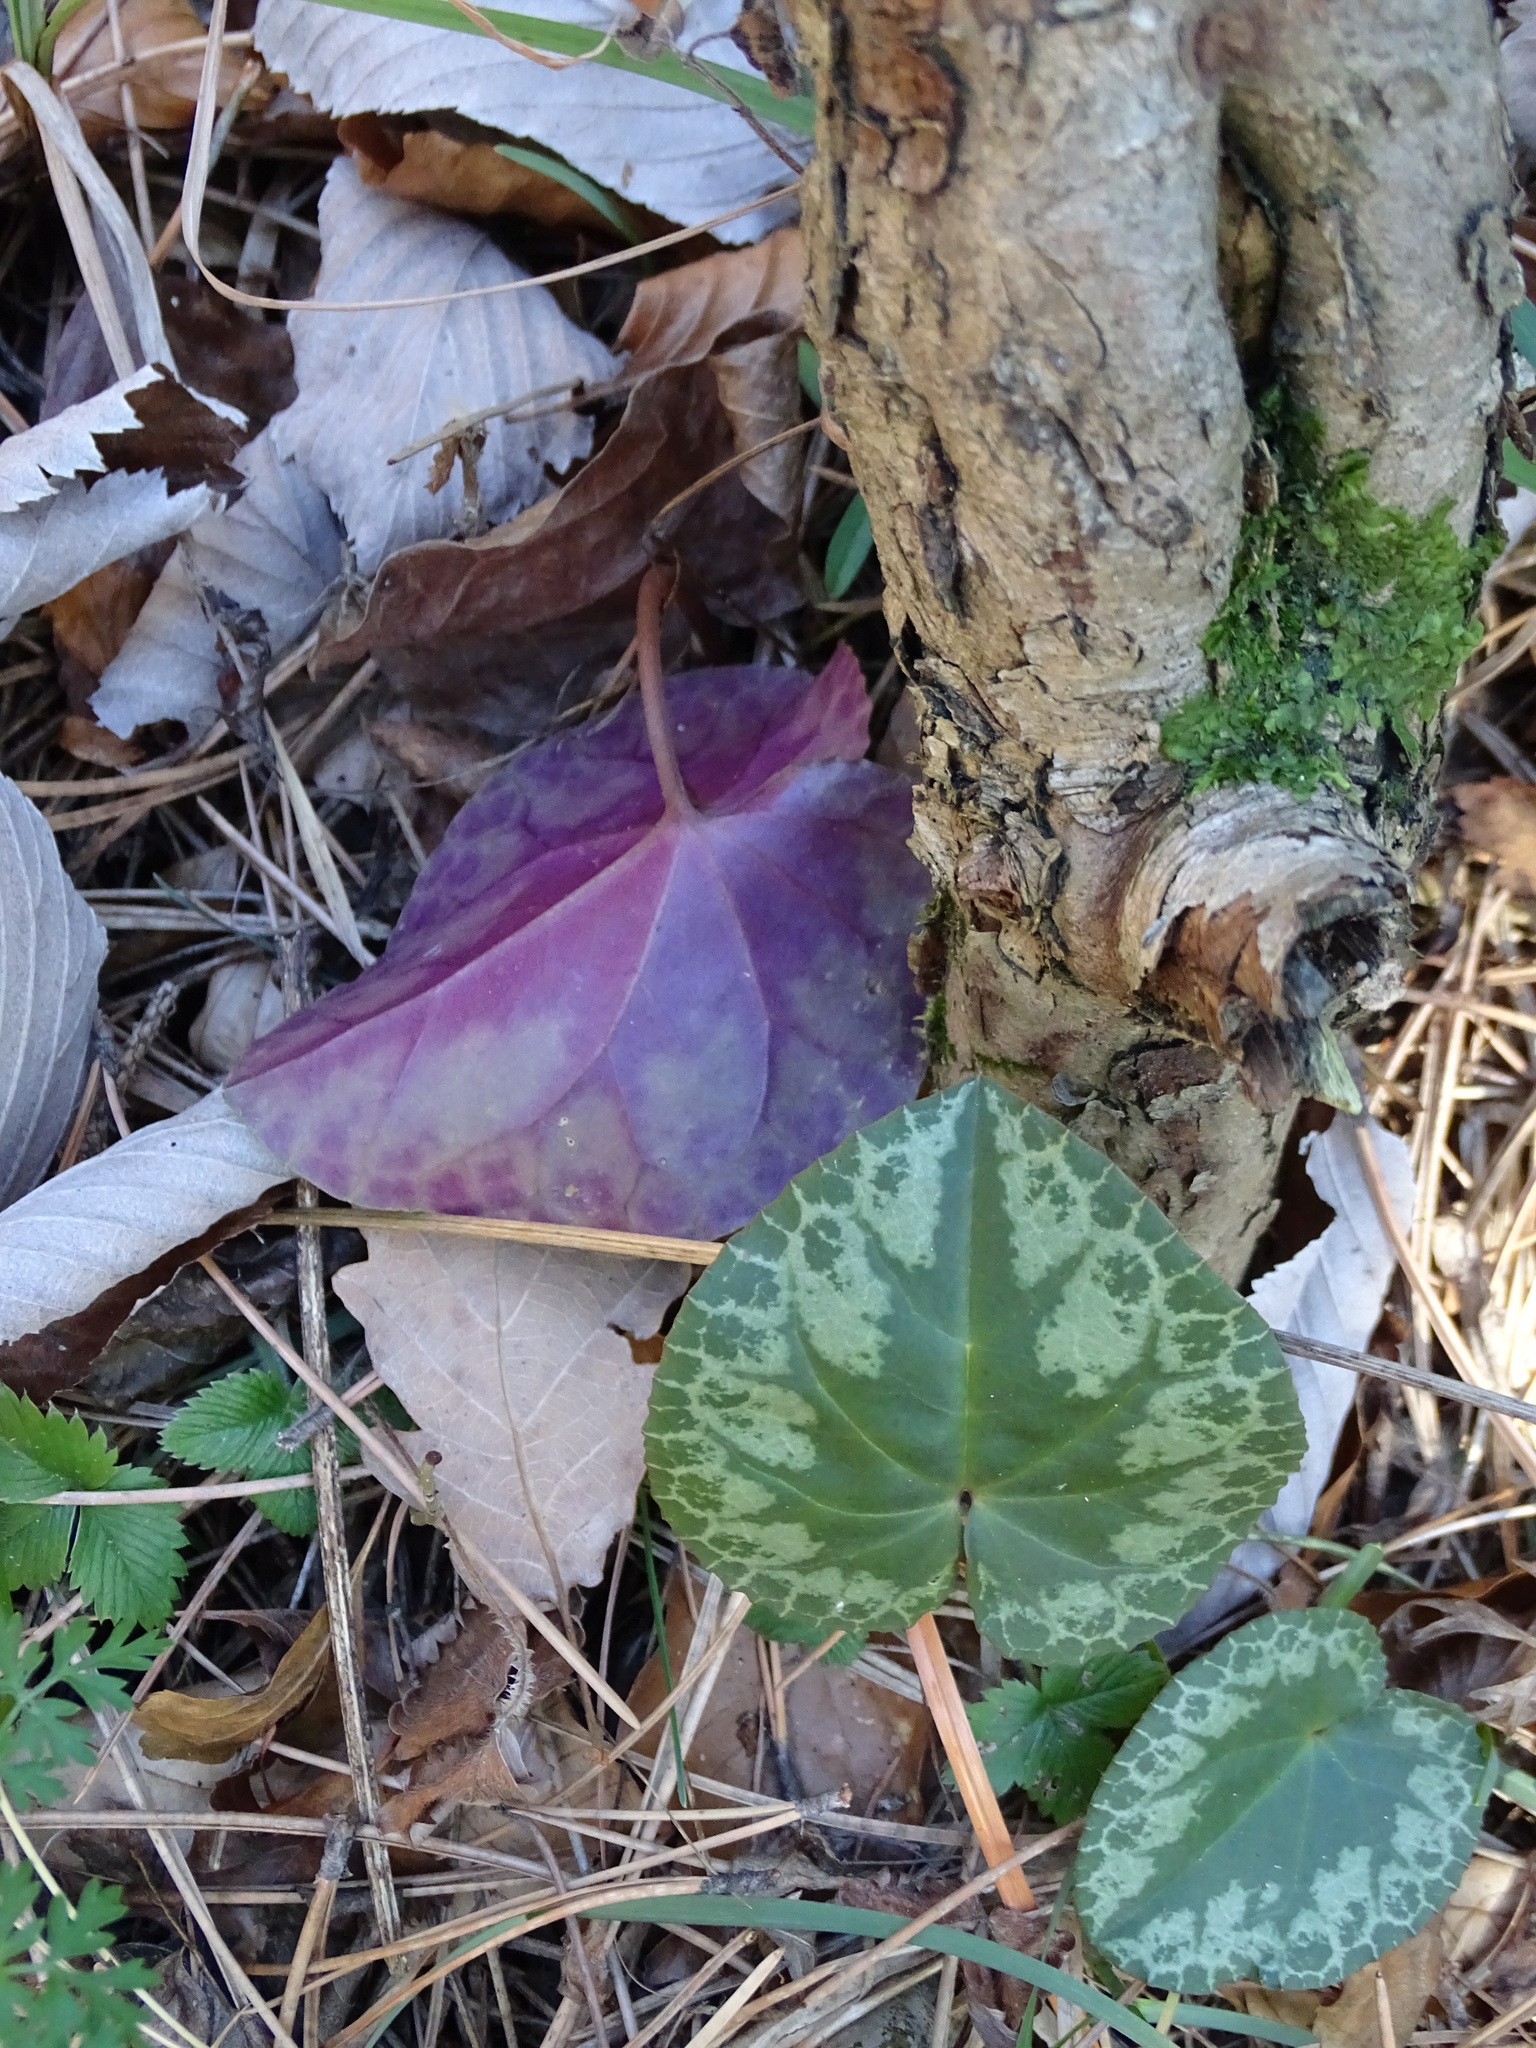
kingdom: Plantae
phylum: Tracheophyta
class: Magnoliopsida
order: Ericales
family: Primulaceae
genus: Cyclamen
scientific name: Cyclamen purpurascens
